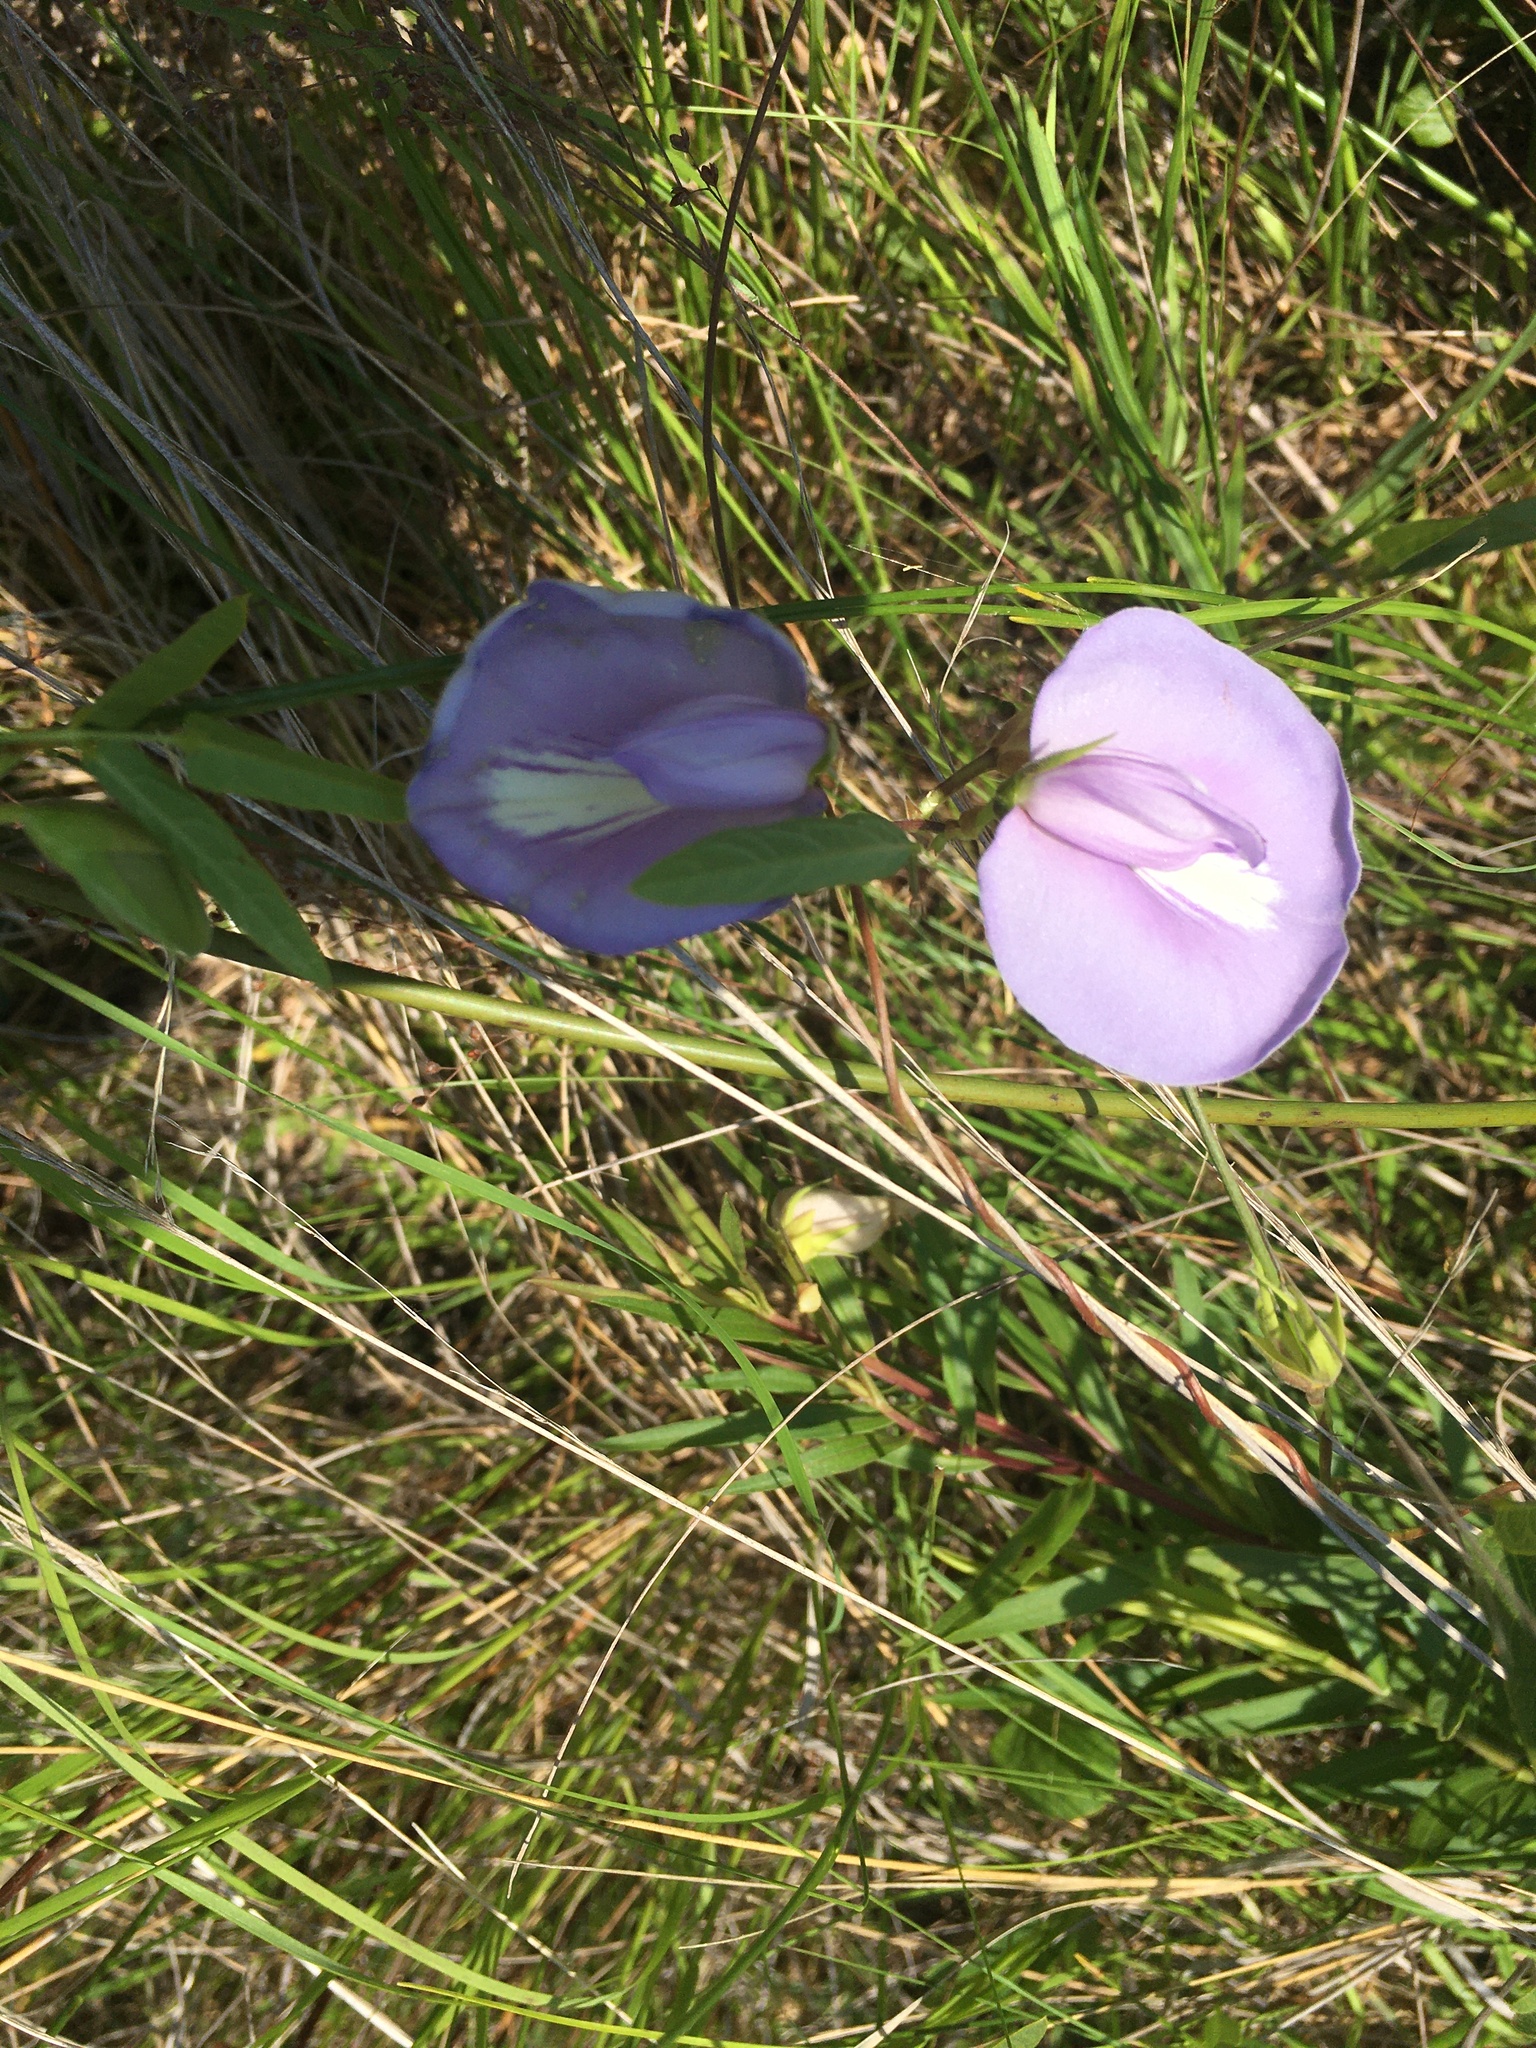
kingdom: Plantae
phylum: Tracheophyta
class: Magnoliopsida
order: Fabales
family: Fabaceae
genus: Centrosema
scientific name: Centrosema virginianum
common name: Butterfly-pea
